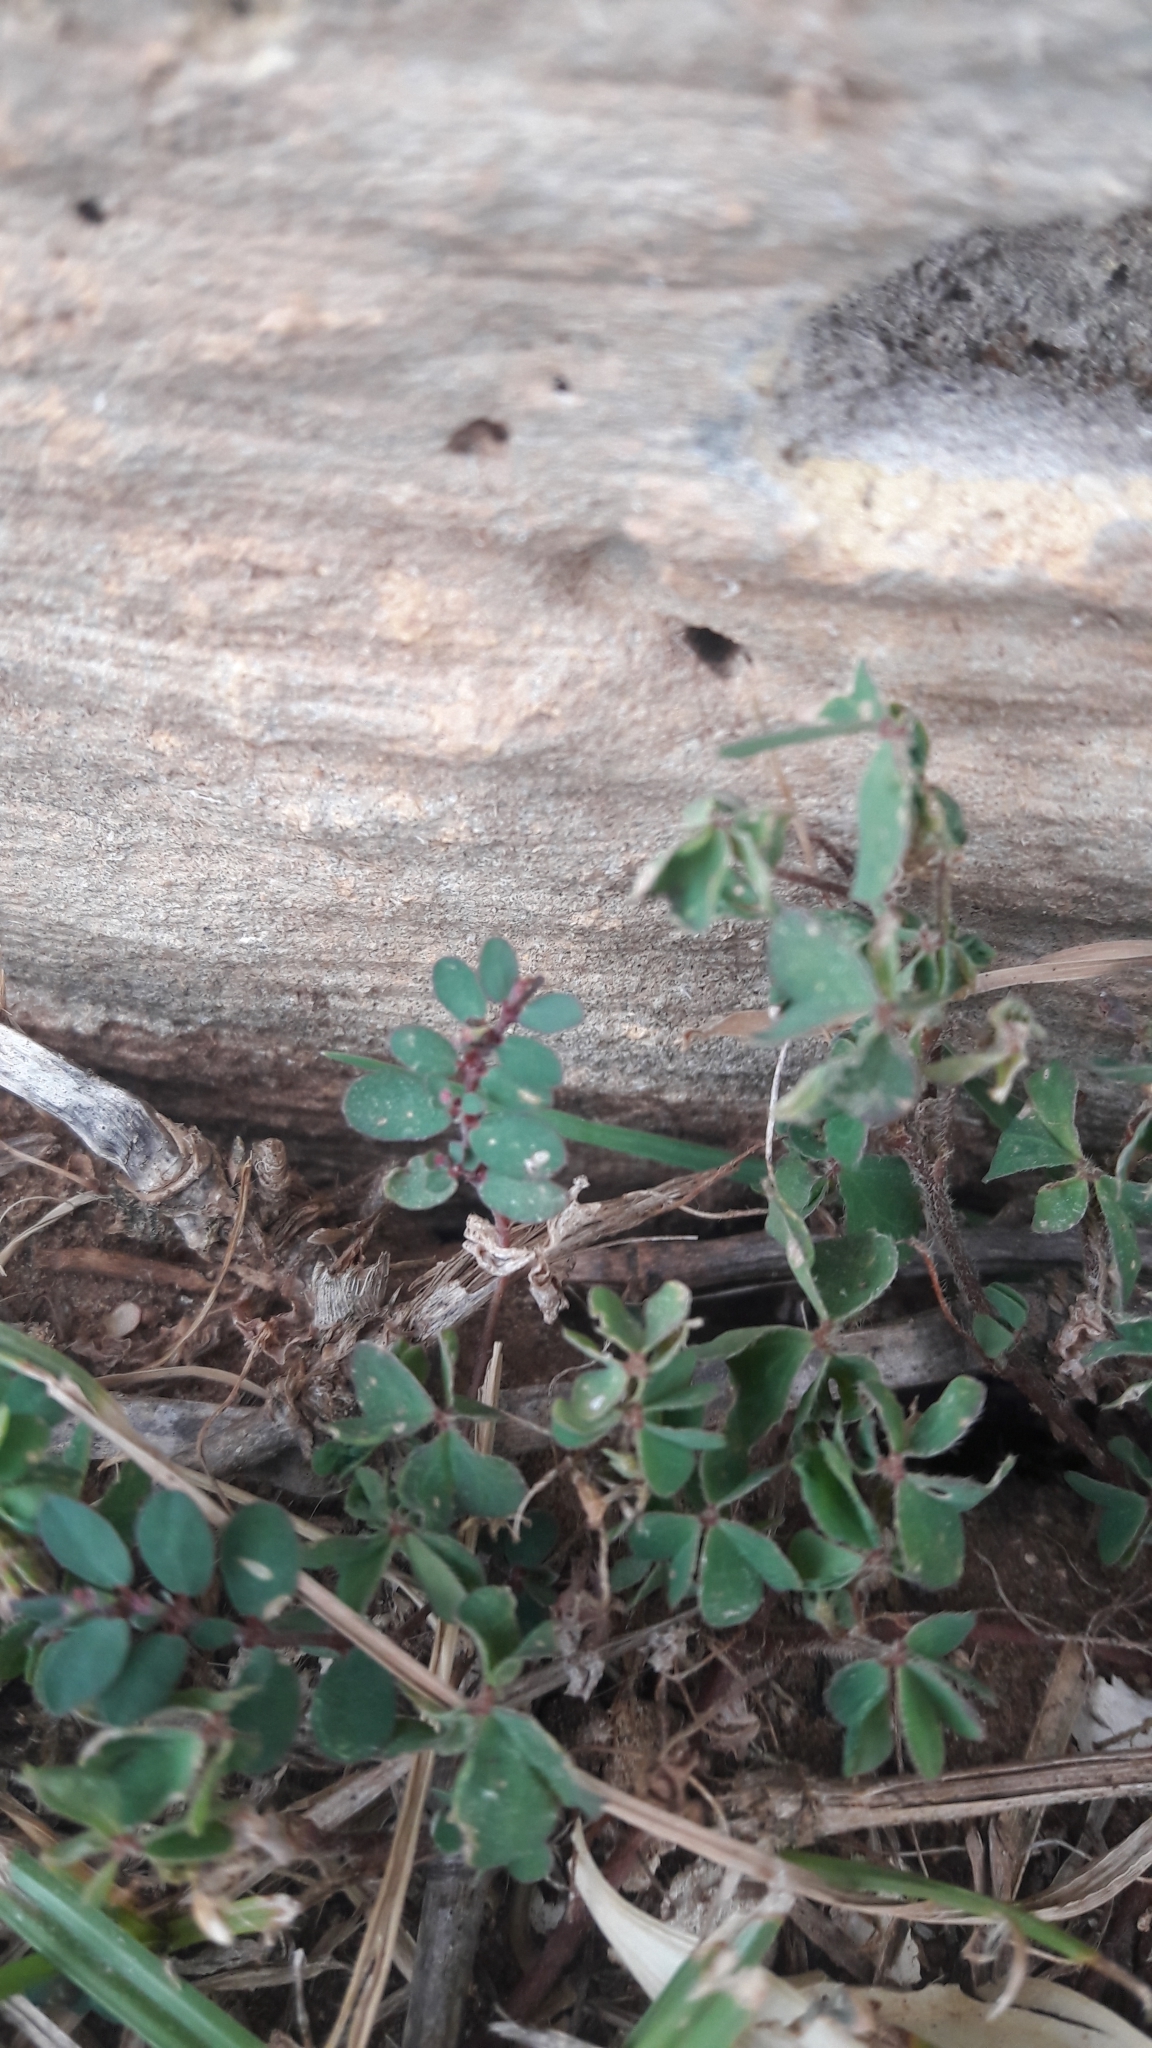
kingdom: Plantae
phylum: Tracheophyta
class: Magnoliopsida
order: Malpighiales
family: Euphorbiaceae
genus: Euphorbia
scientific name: Euphorbia prostrata
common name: Prostrate sandmat
